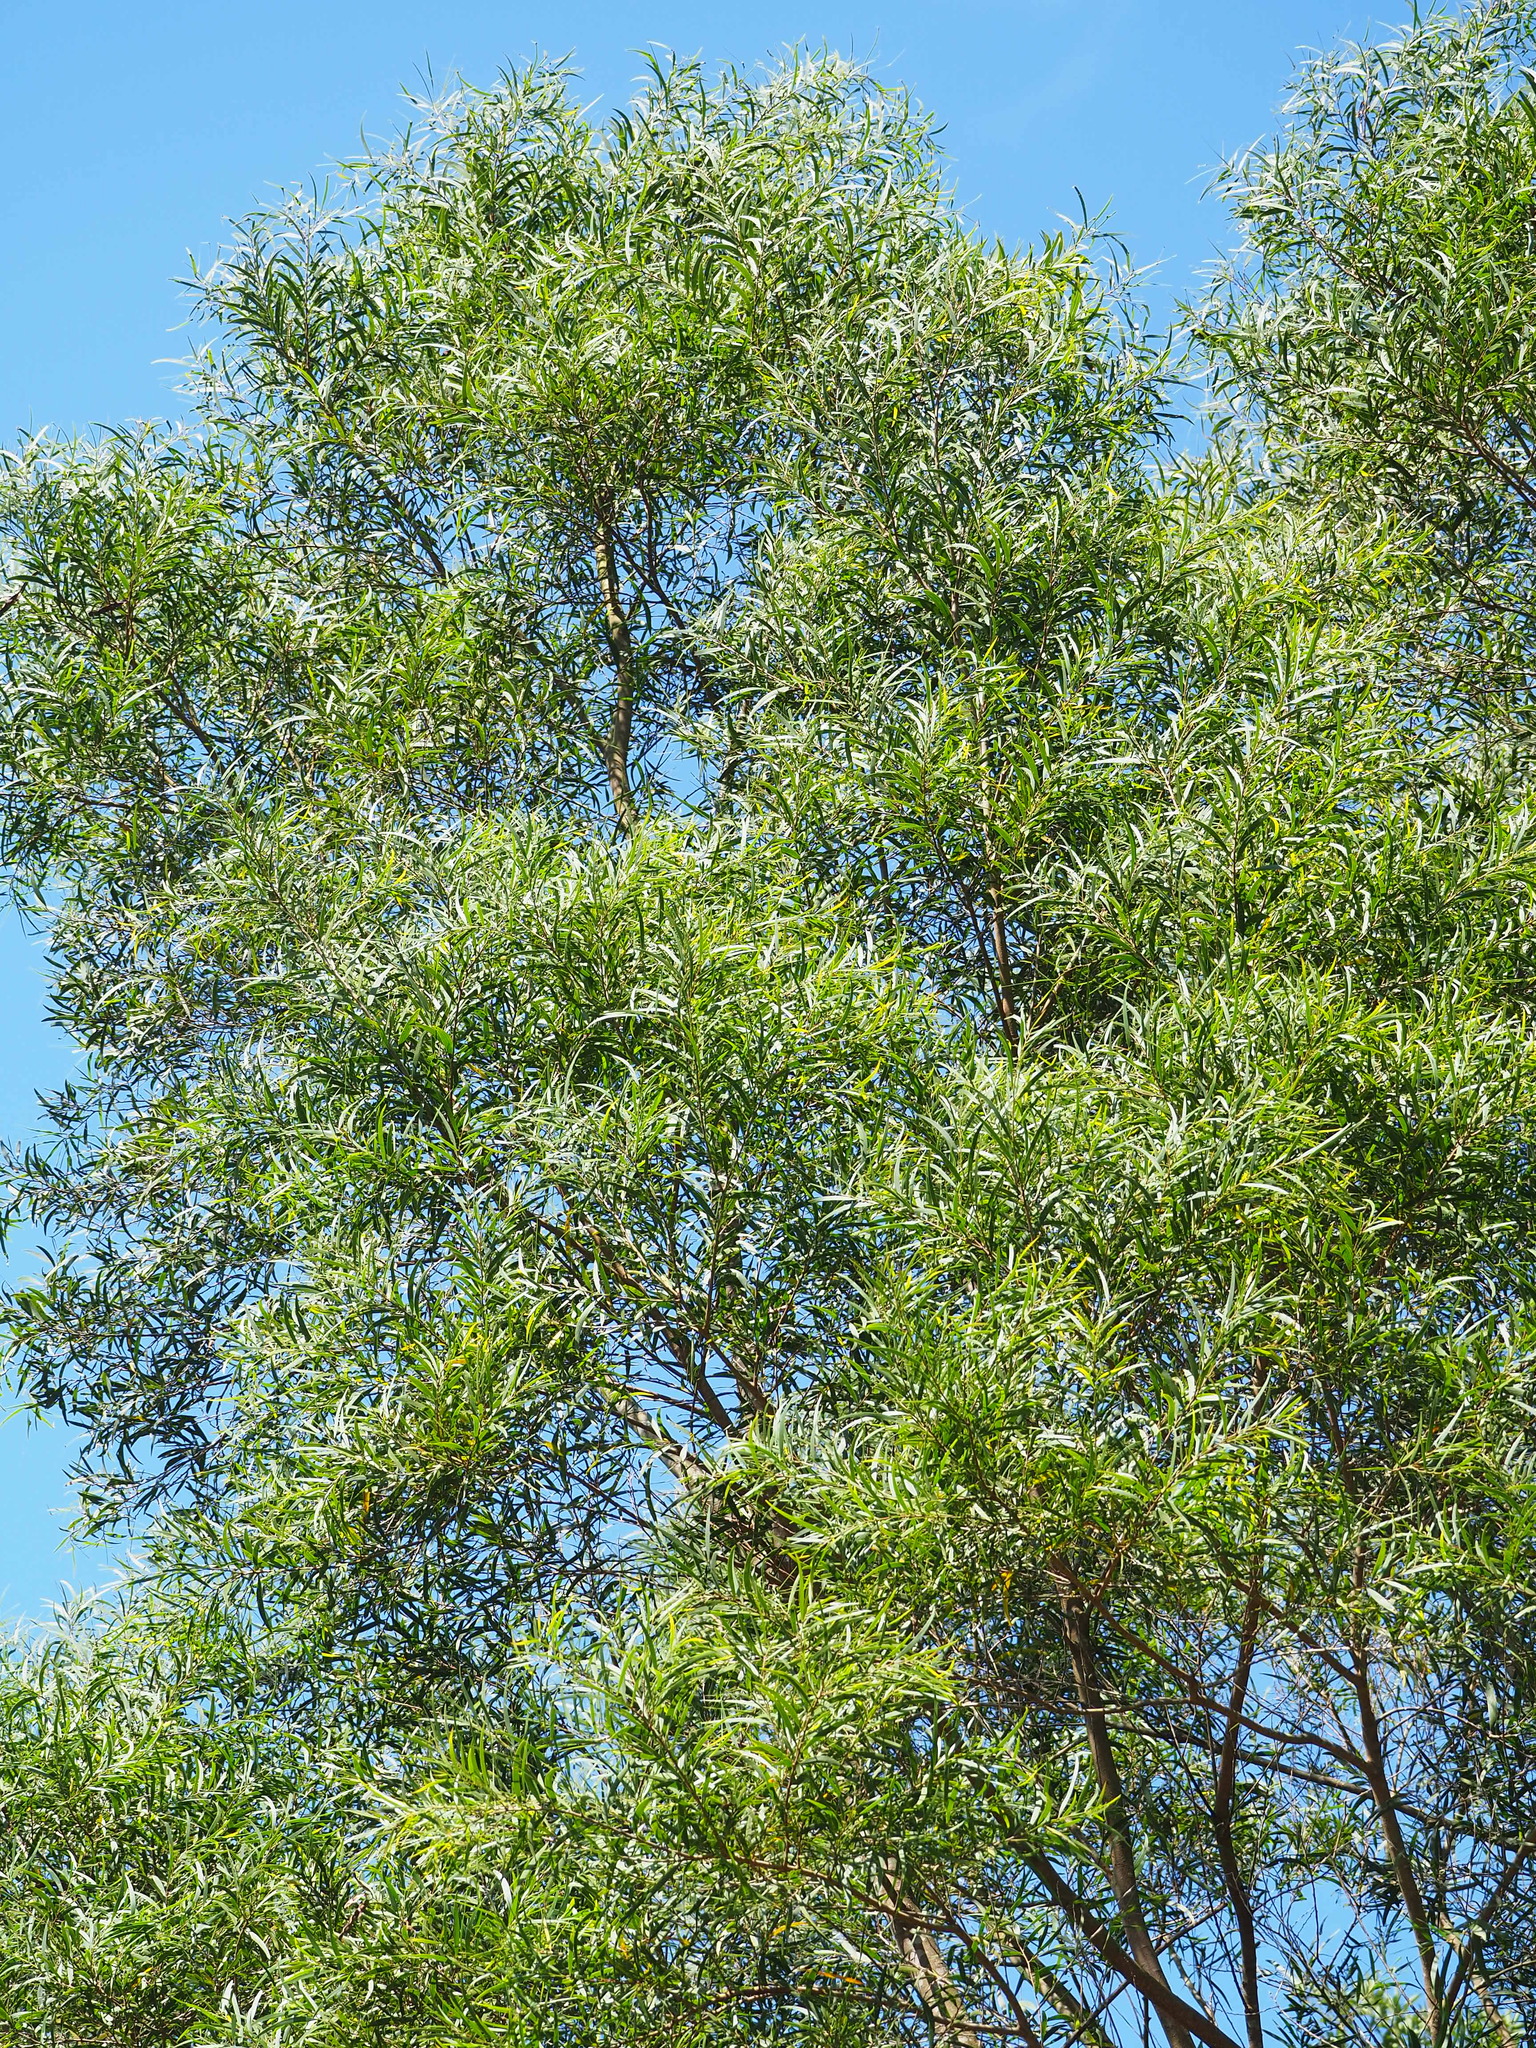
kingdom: Plantae
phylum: Tracheophyta
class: Magnoliopsida
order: Fabales
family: Fabaceae
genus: Acacia
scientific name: Acacia confusa
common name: Formosan koa
